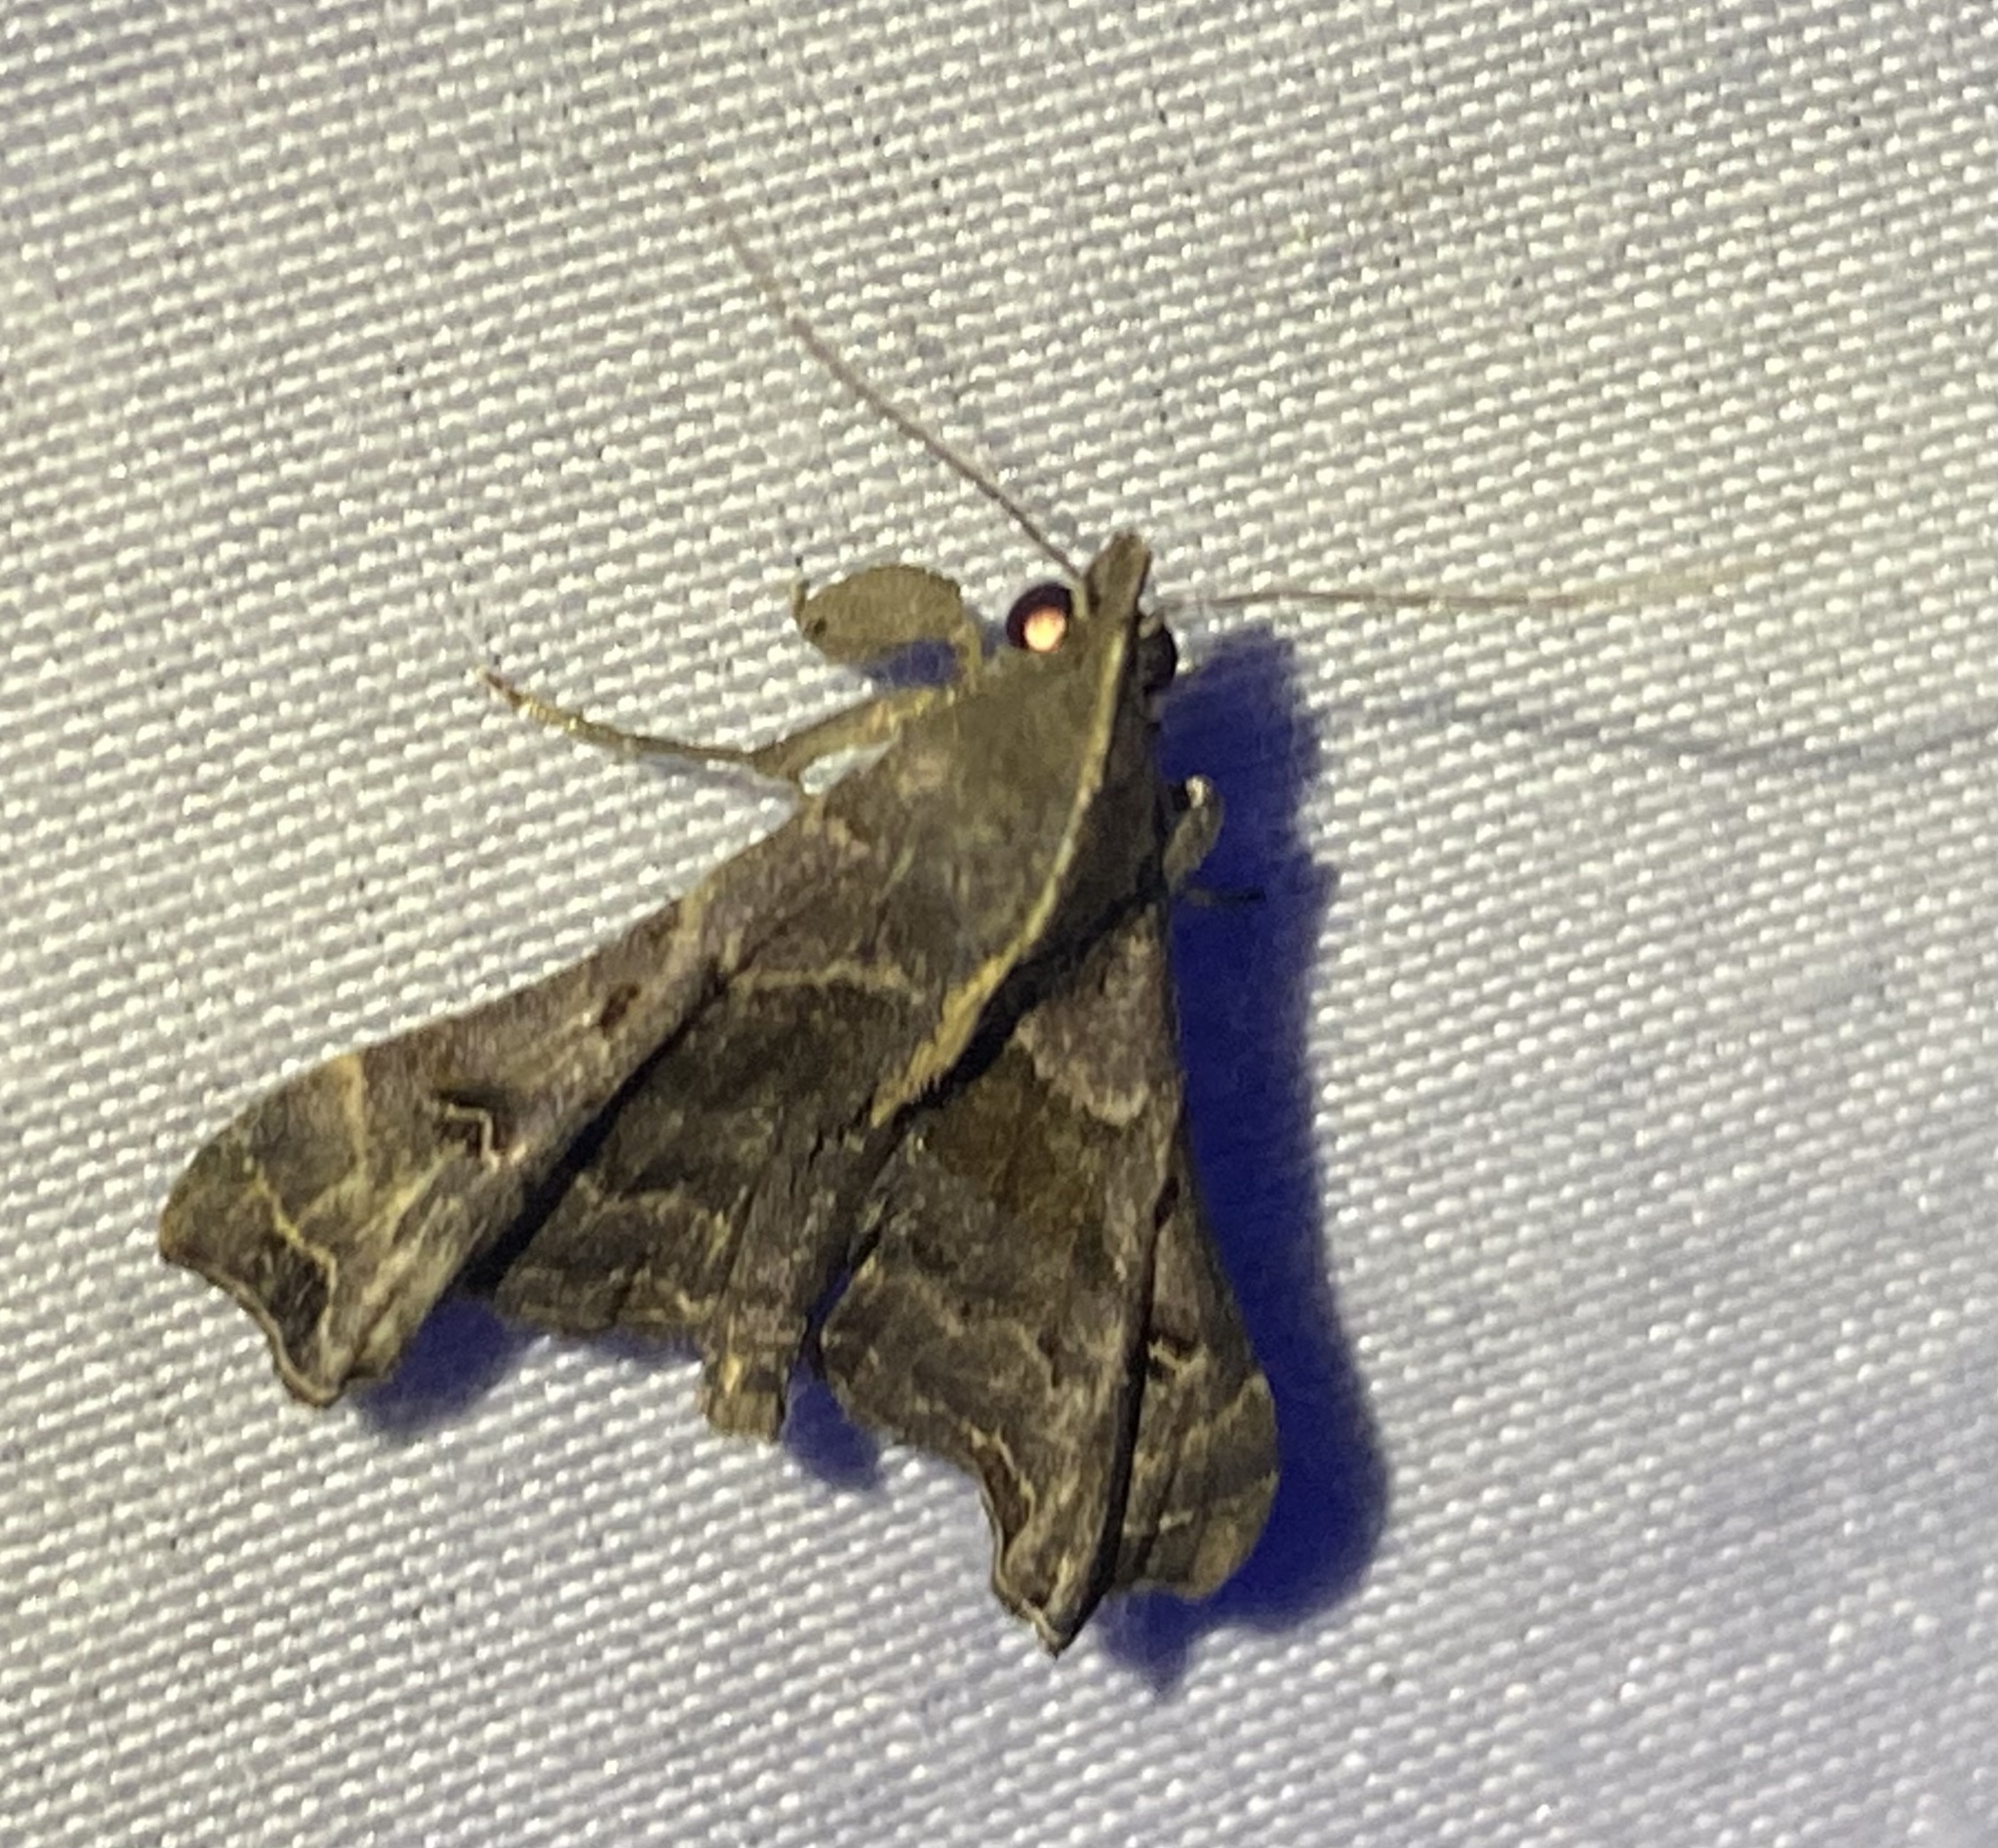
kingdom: Animalia
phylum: Arthropoda
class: Insecta
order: Lepidoptera
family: Erebidae
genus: Palthis
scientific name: Palthis asopialis
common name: Faint-spotted palthis moth
